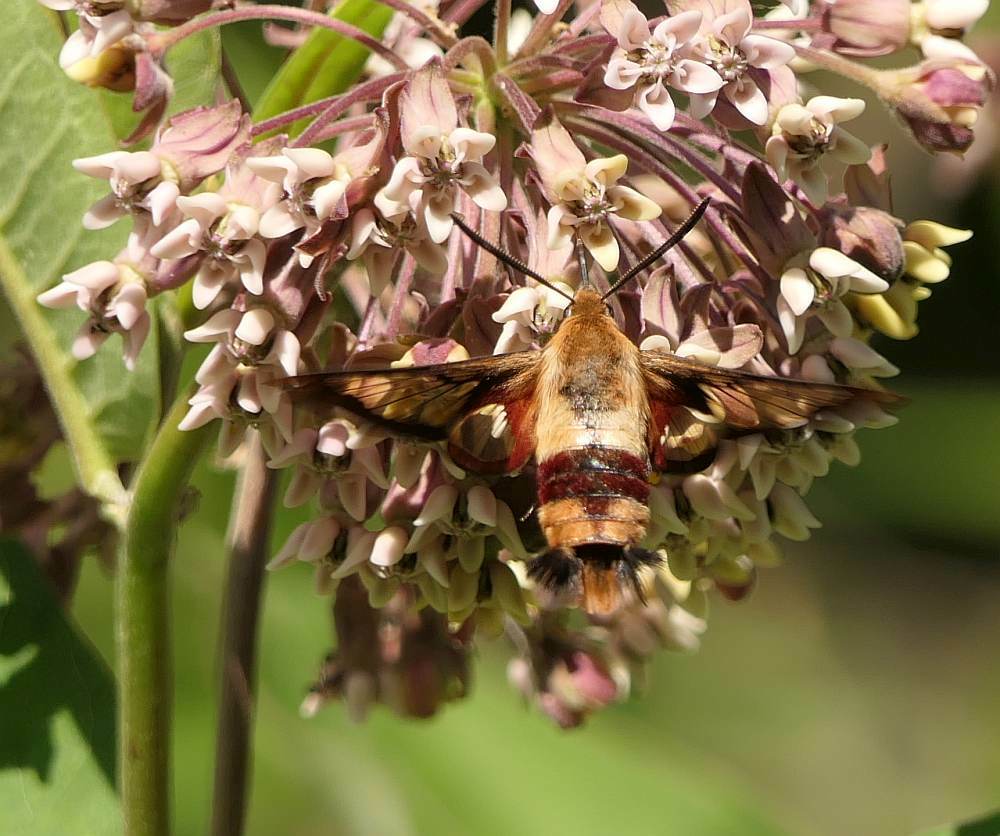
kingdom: Animalia
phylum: Arthropoda
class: Insecta
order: Lepidoptera
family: Sphingidae
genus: Hemaris
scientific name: Hemaris thysbe
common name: Common clear-wing
